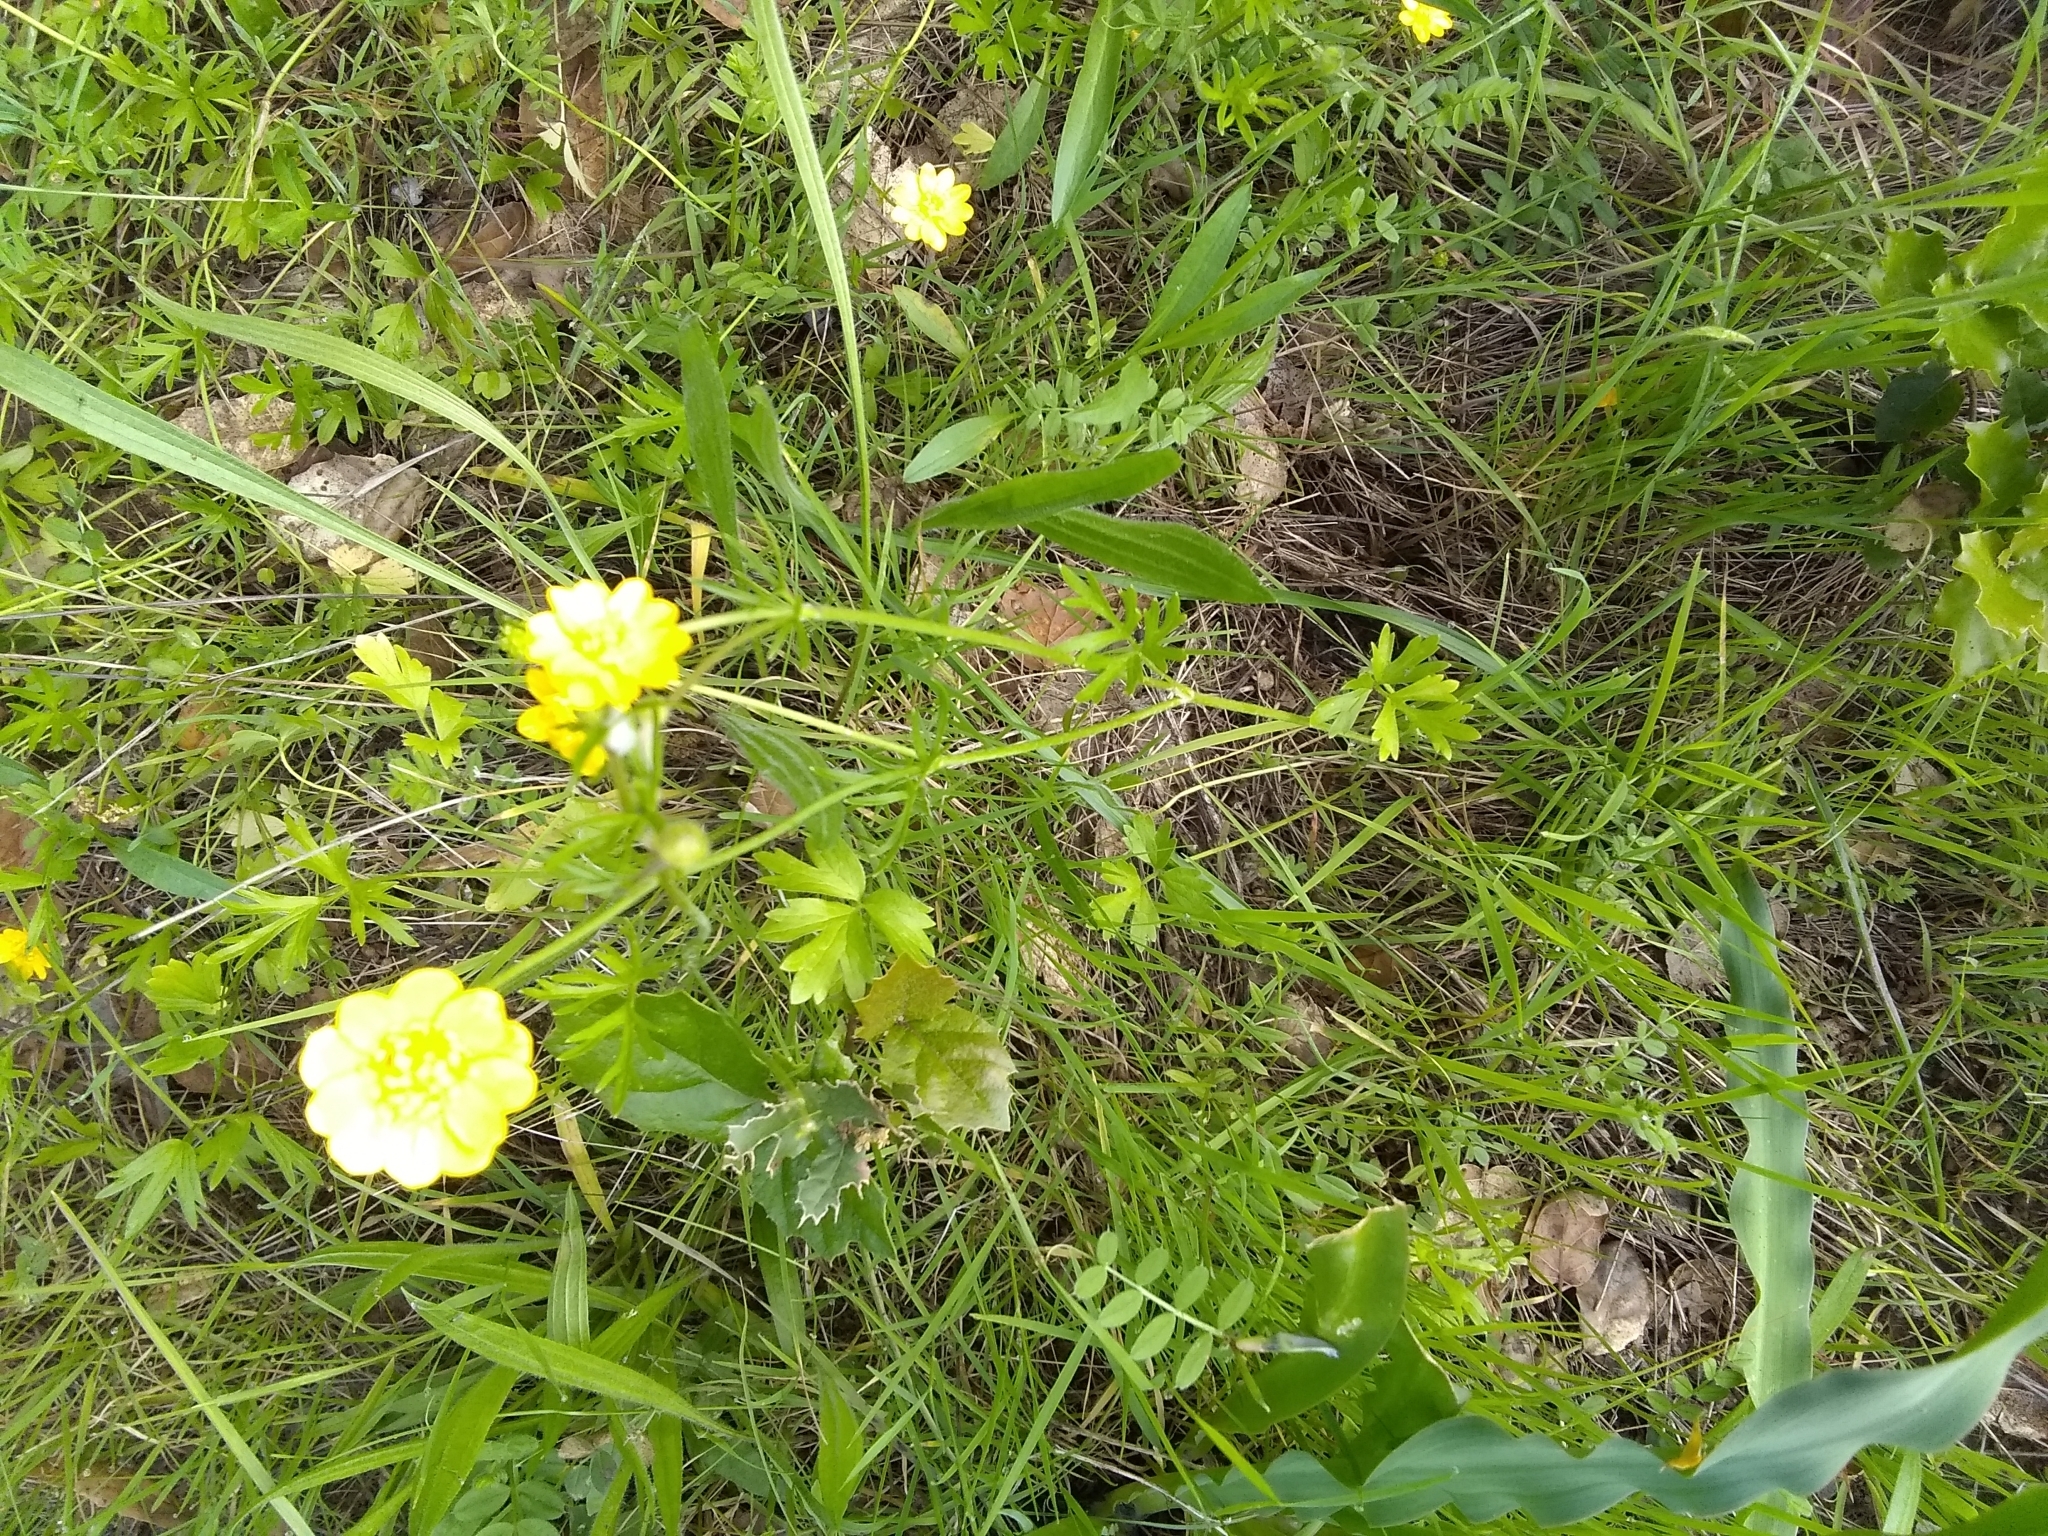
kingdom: Plantae
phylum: Tracheophyta
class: Magnoliopsida
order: Ranunculales
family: Ranunculaceae
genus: Ranunculus
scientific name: Ranunculus californicus
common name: California buttercup
